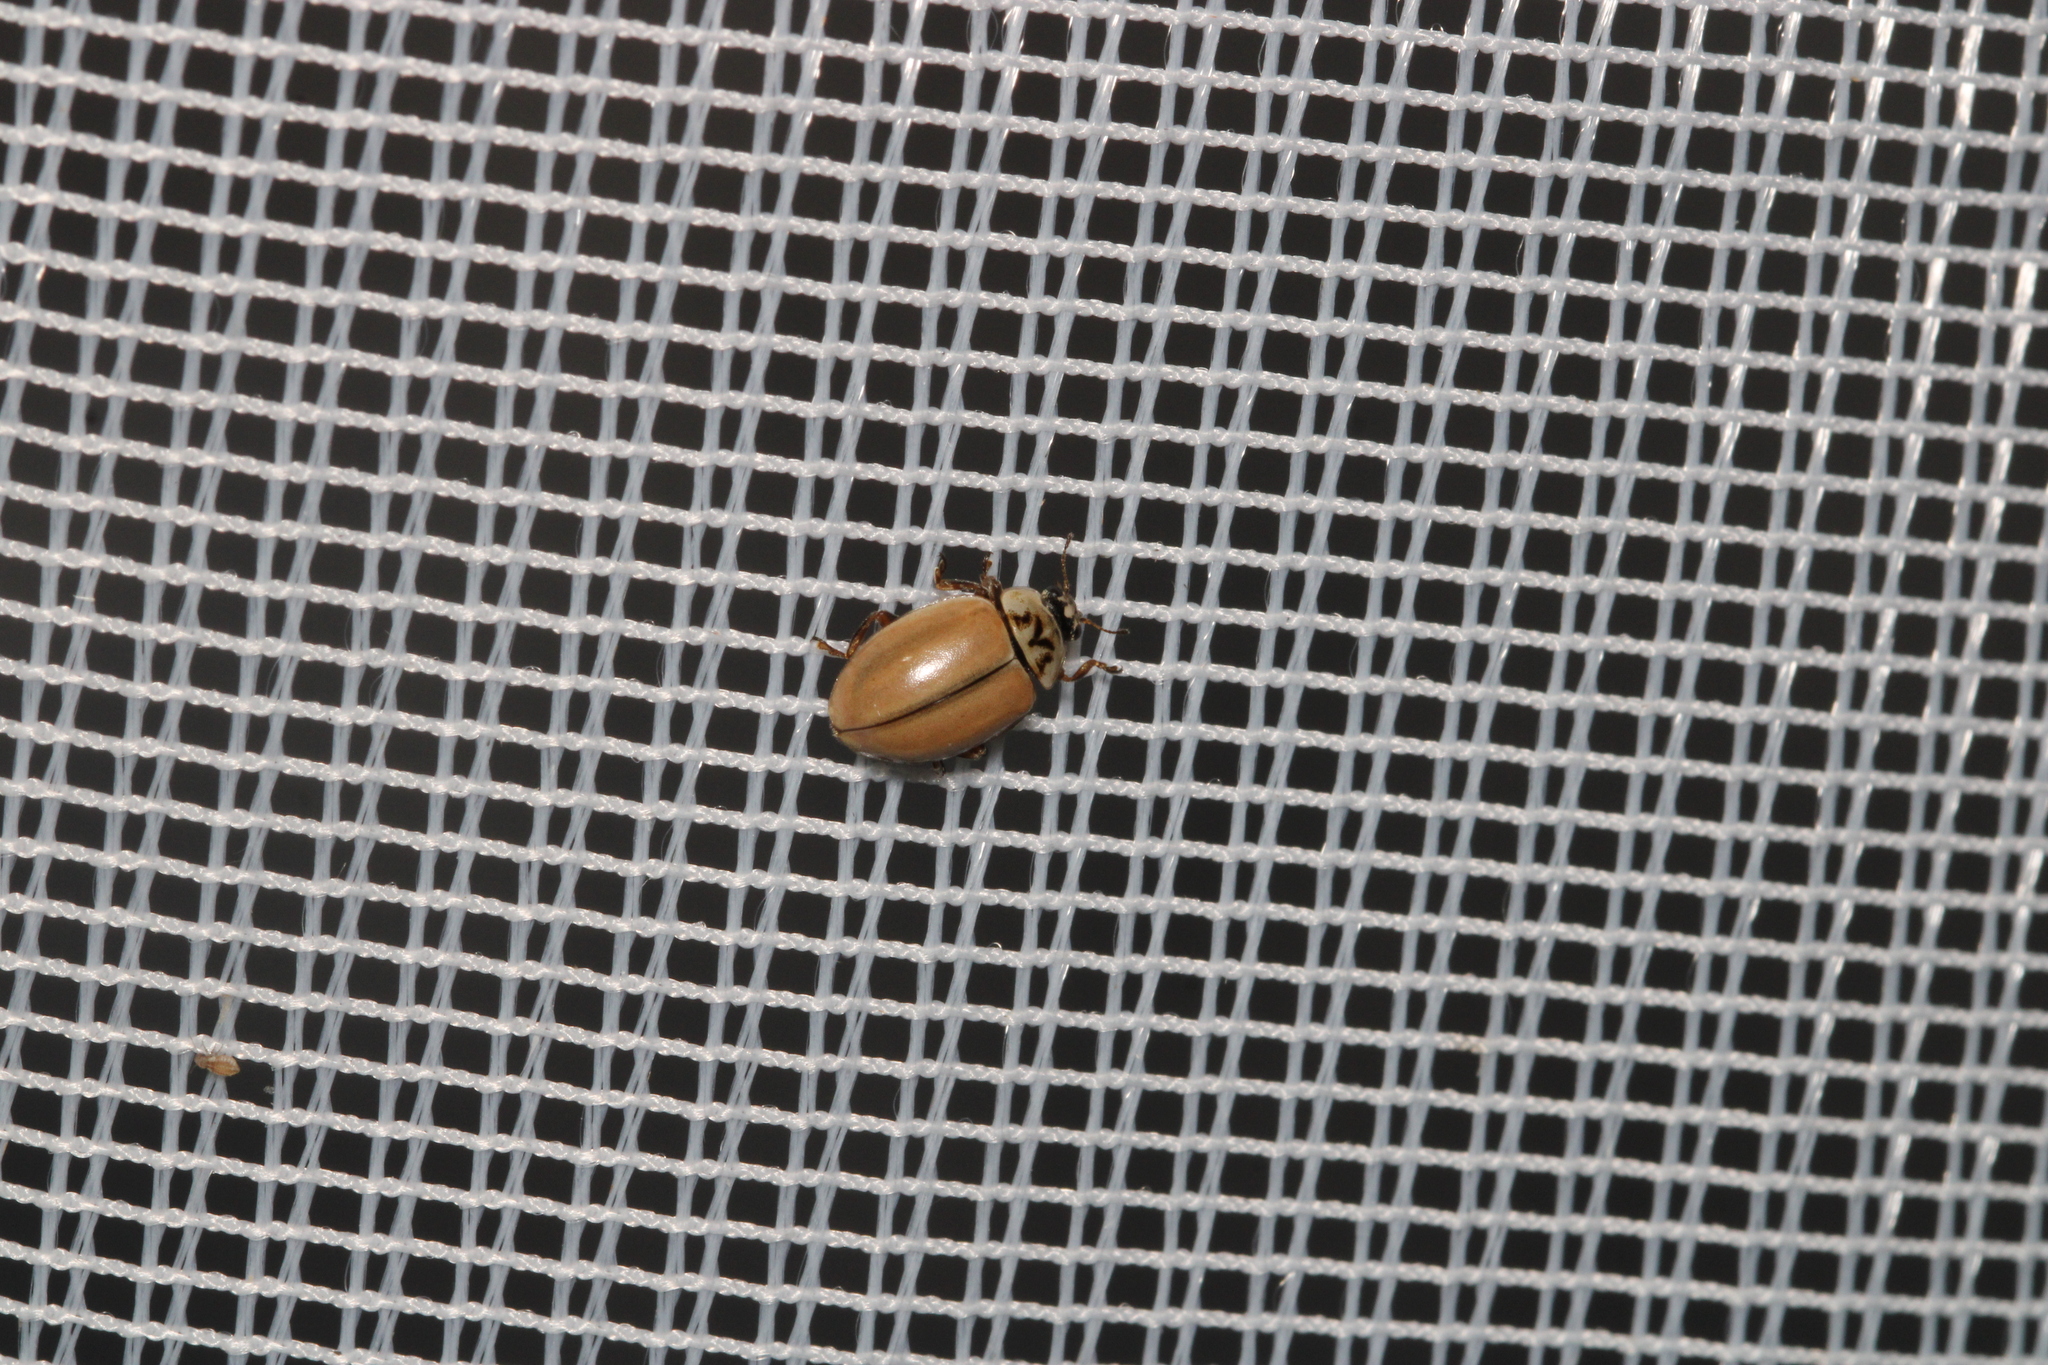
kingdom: Animalia
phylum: Arthropoda
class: Insecta
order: Coleoptera
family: Coccinellidae
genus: Aphidecta
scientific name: Aphidecta obliterata
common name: Larch ladybird
